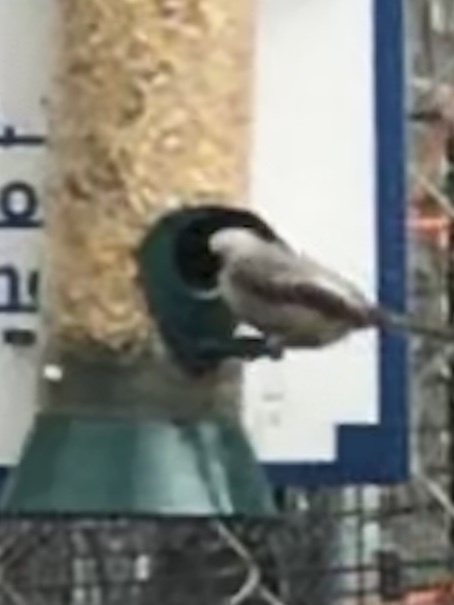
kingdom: Animalia
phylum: Chordata
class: Aves
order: Passeriformes
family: Paridae
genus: Poecile
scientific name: Poecile carolinensis
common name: Carolina chickadee
